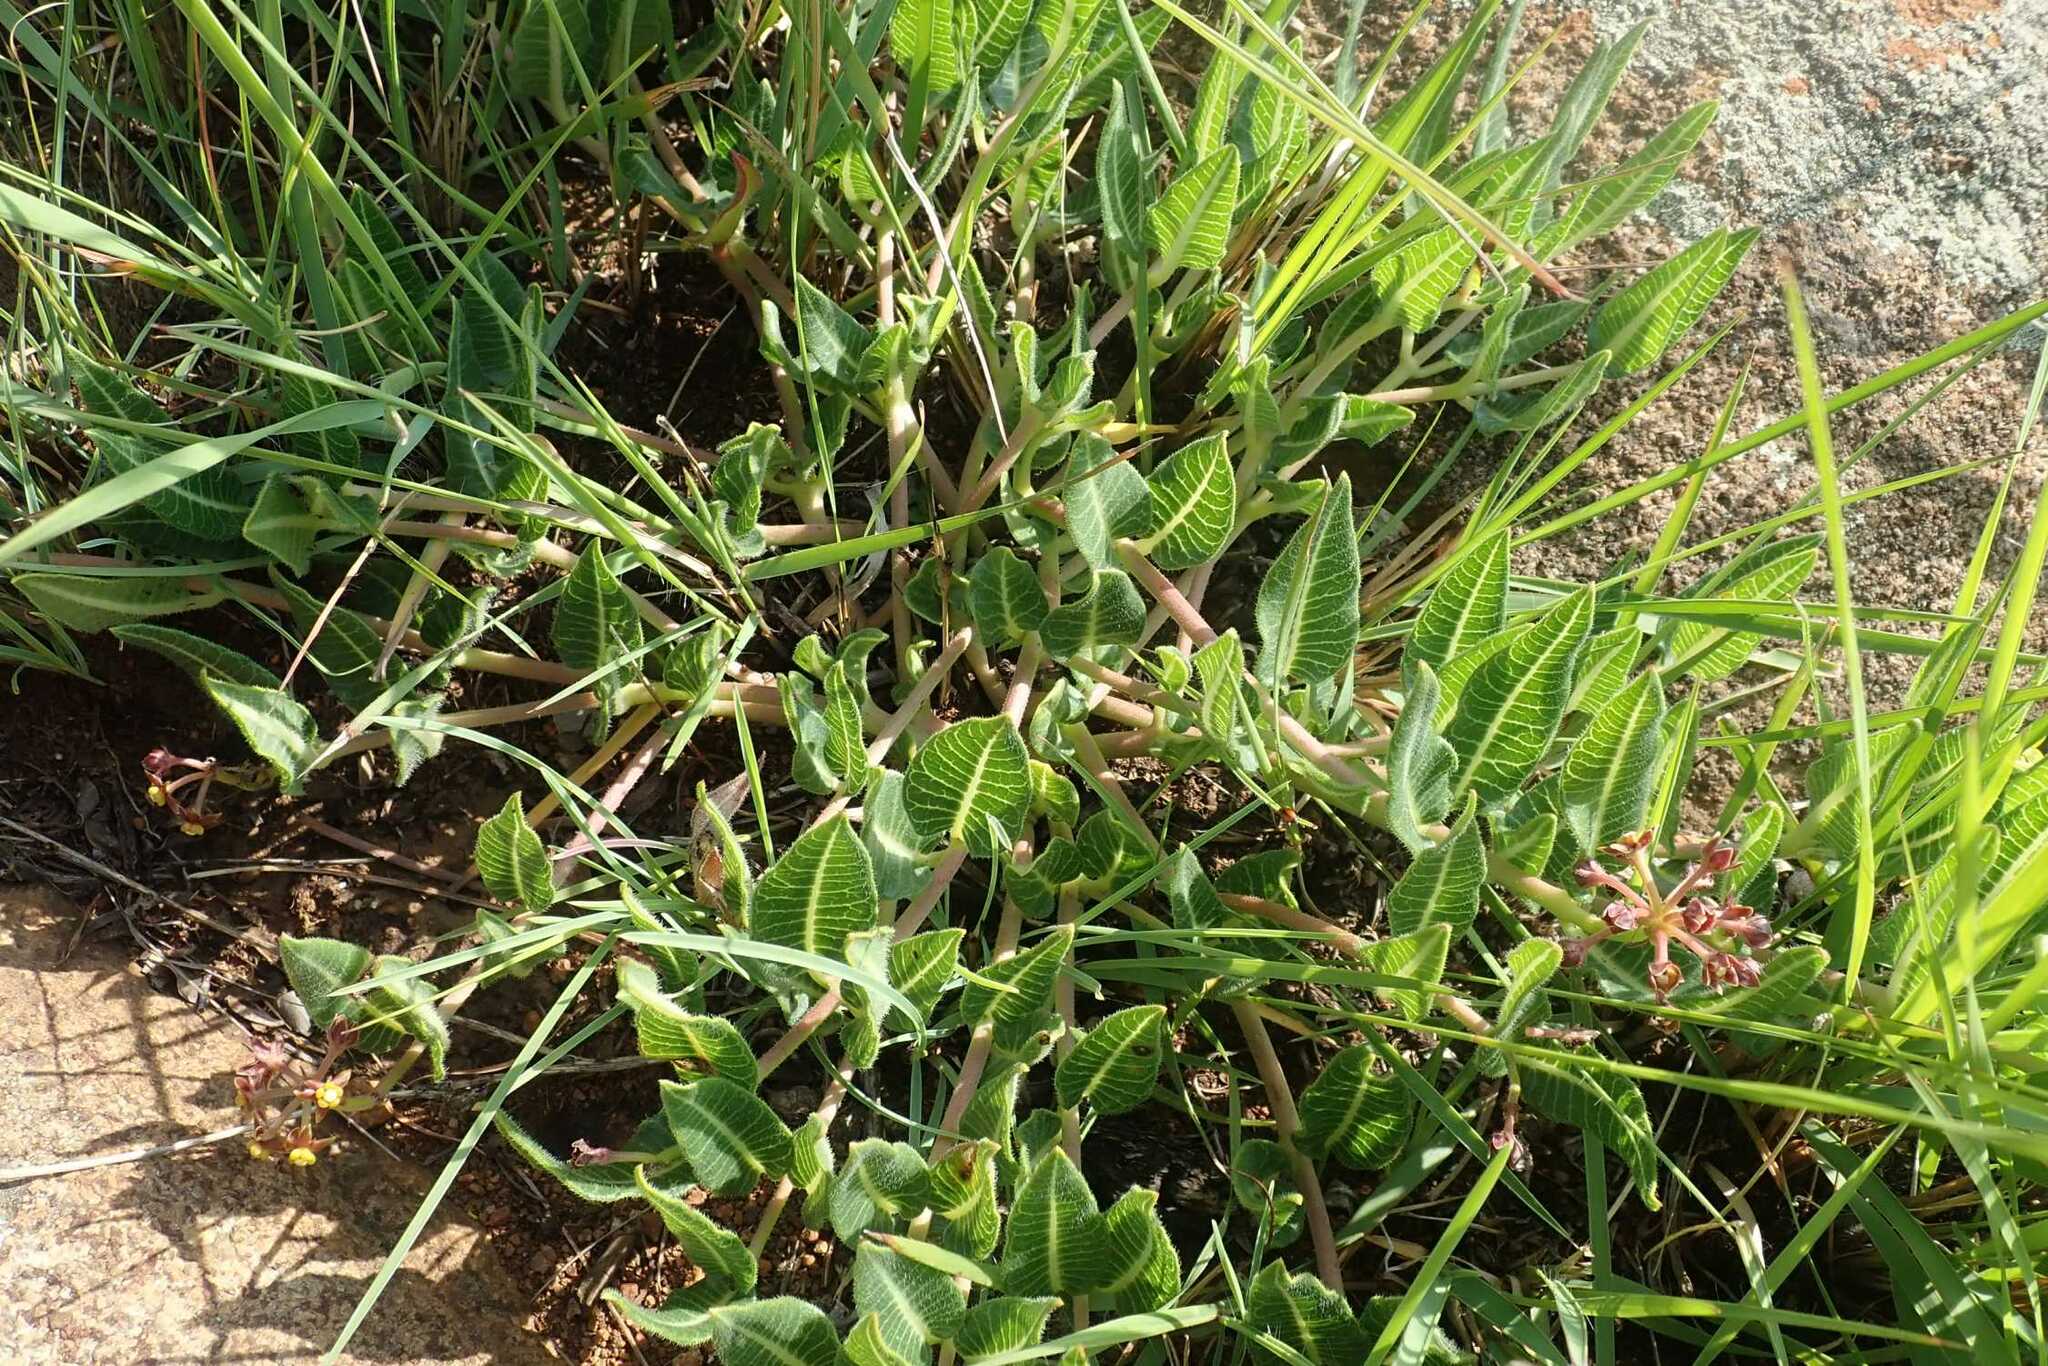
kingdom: Plantae
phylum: Tracheophyta
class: Magnoliopsida
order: Gentianales
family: Apocynaceae
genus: Xysmalobium
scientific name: Xysmalobium asperum
